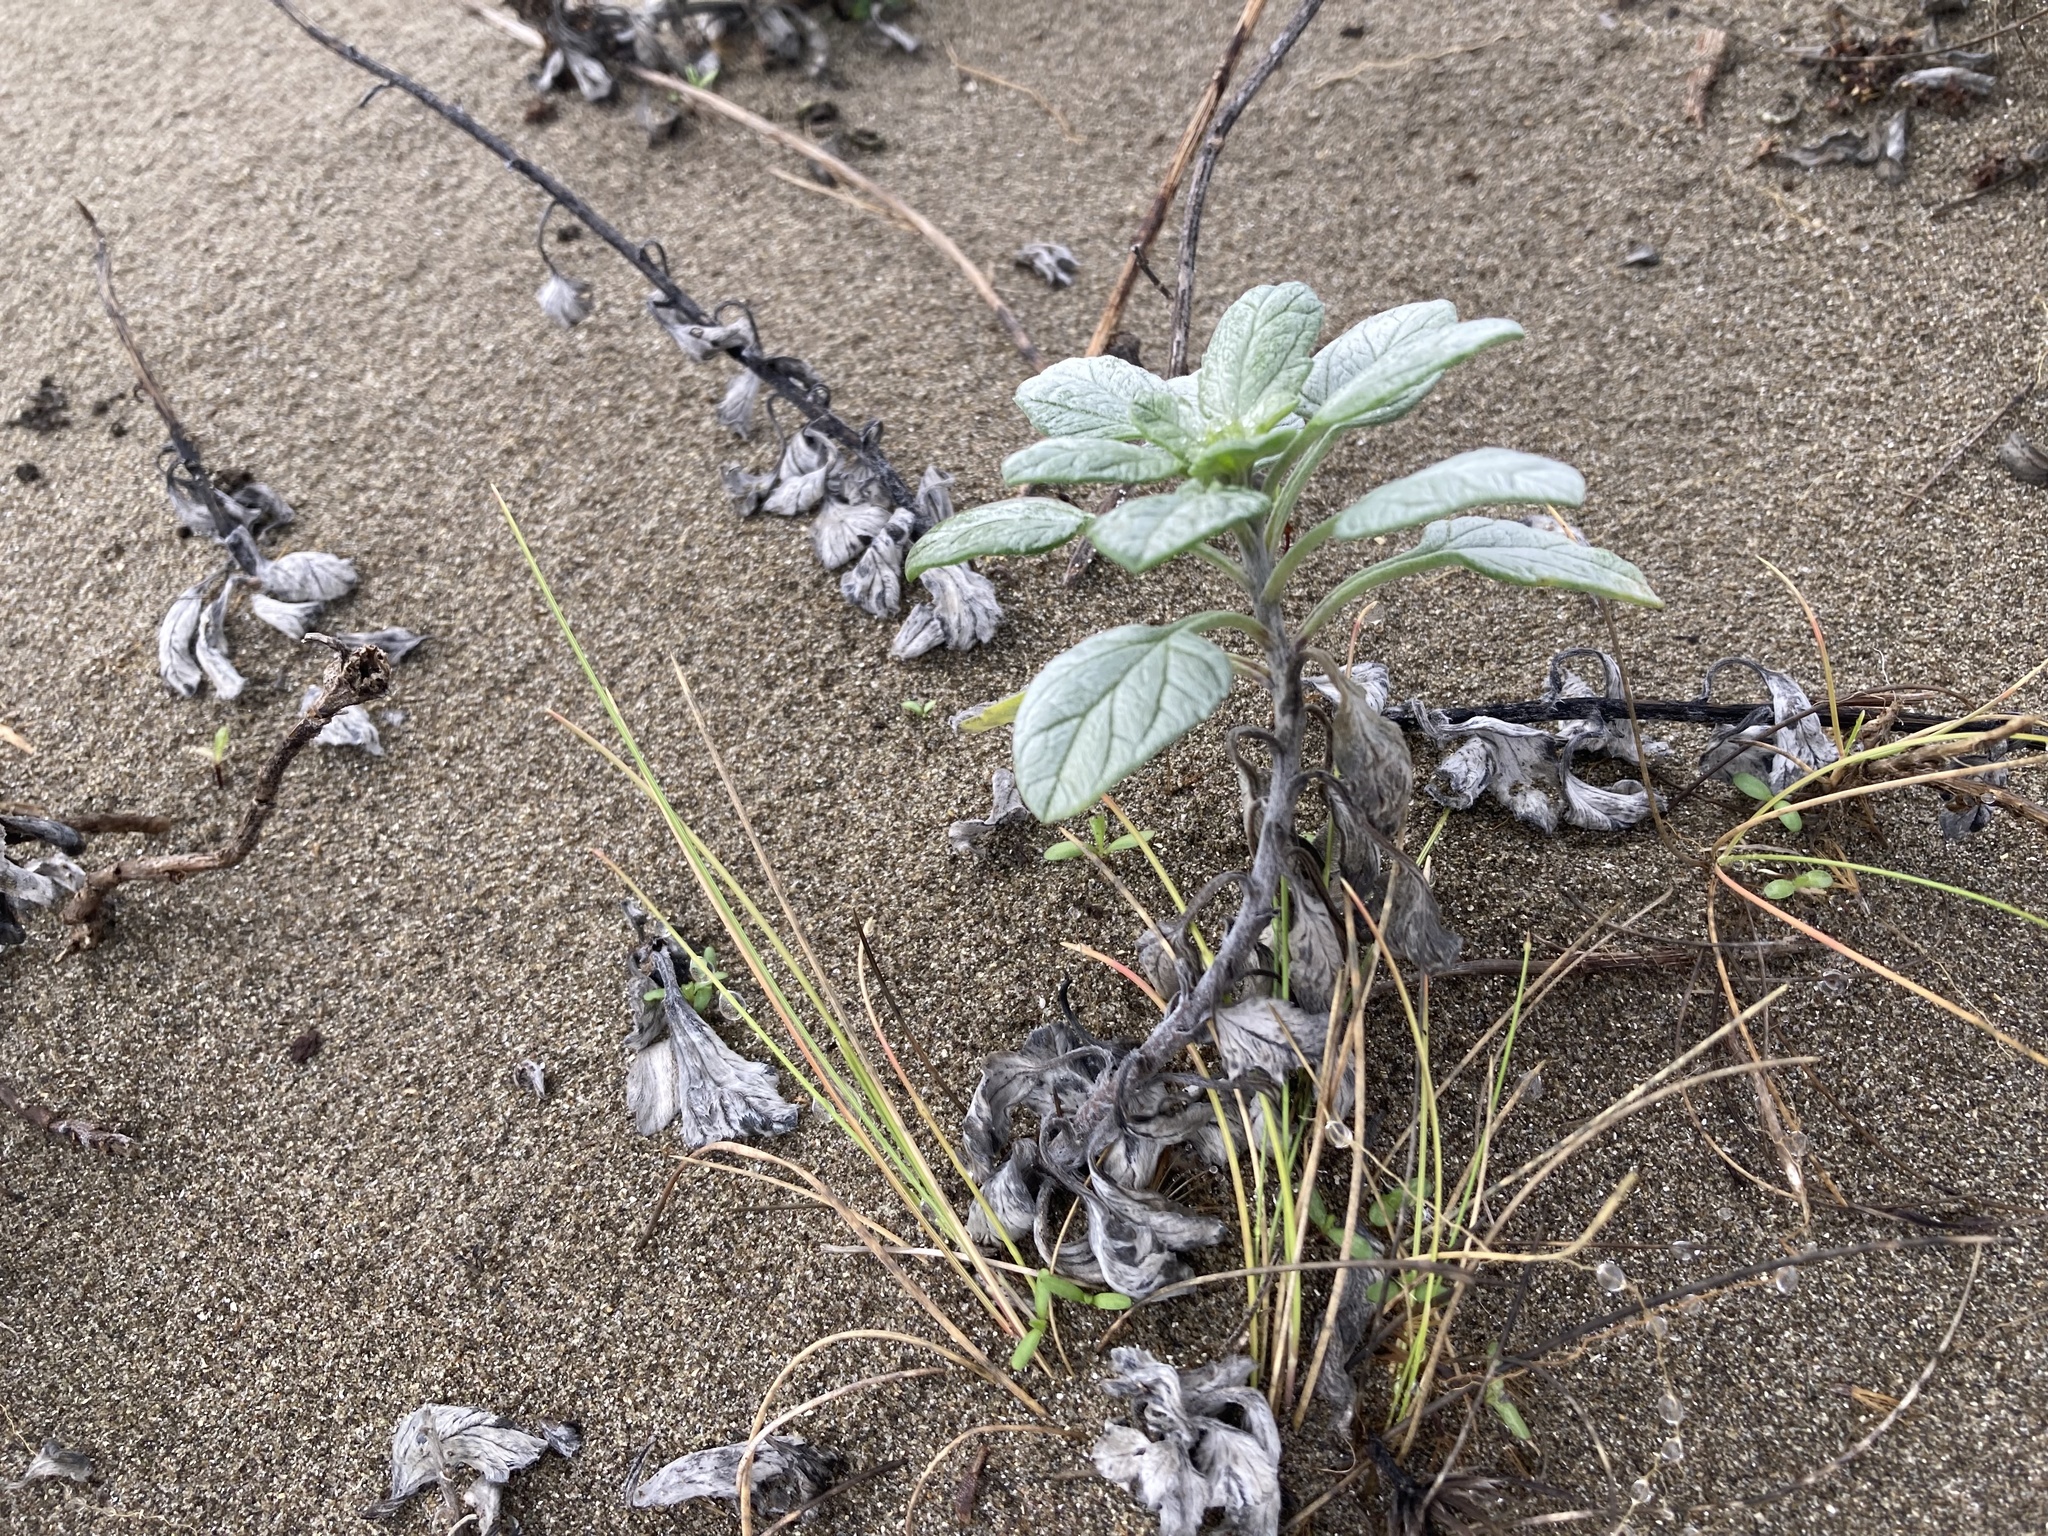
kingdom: Plantae
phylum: Tracheophyta
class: Magnoliopsida
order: Asterales
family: Asteraceae
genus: Ambrosia
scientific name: Ambrosia chamissonis
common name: Beachbur
